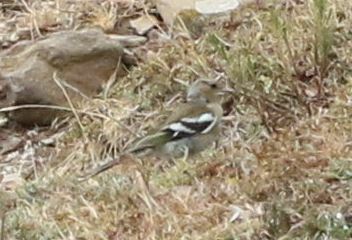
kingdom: Animalia
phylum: Chordata
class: Aves
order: Passeriformes
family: Fringillidae
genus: Fringilla
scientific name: Fringilla coelebs
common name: Common chaffinch
